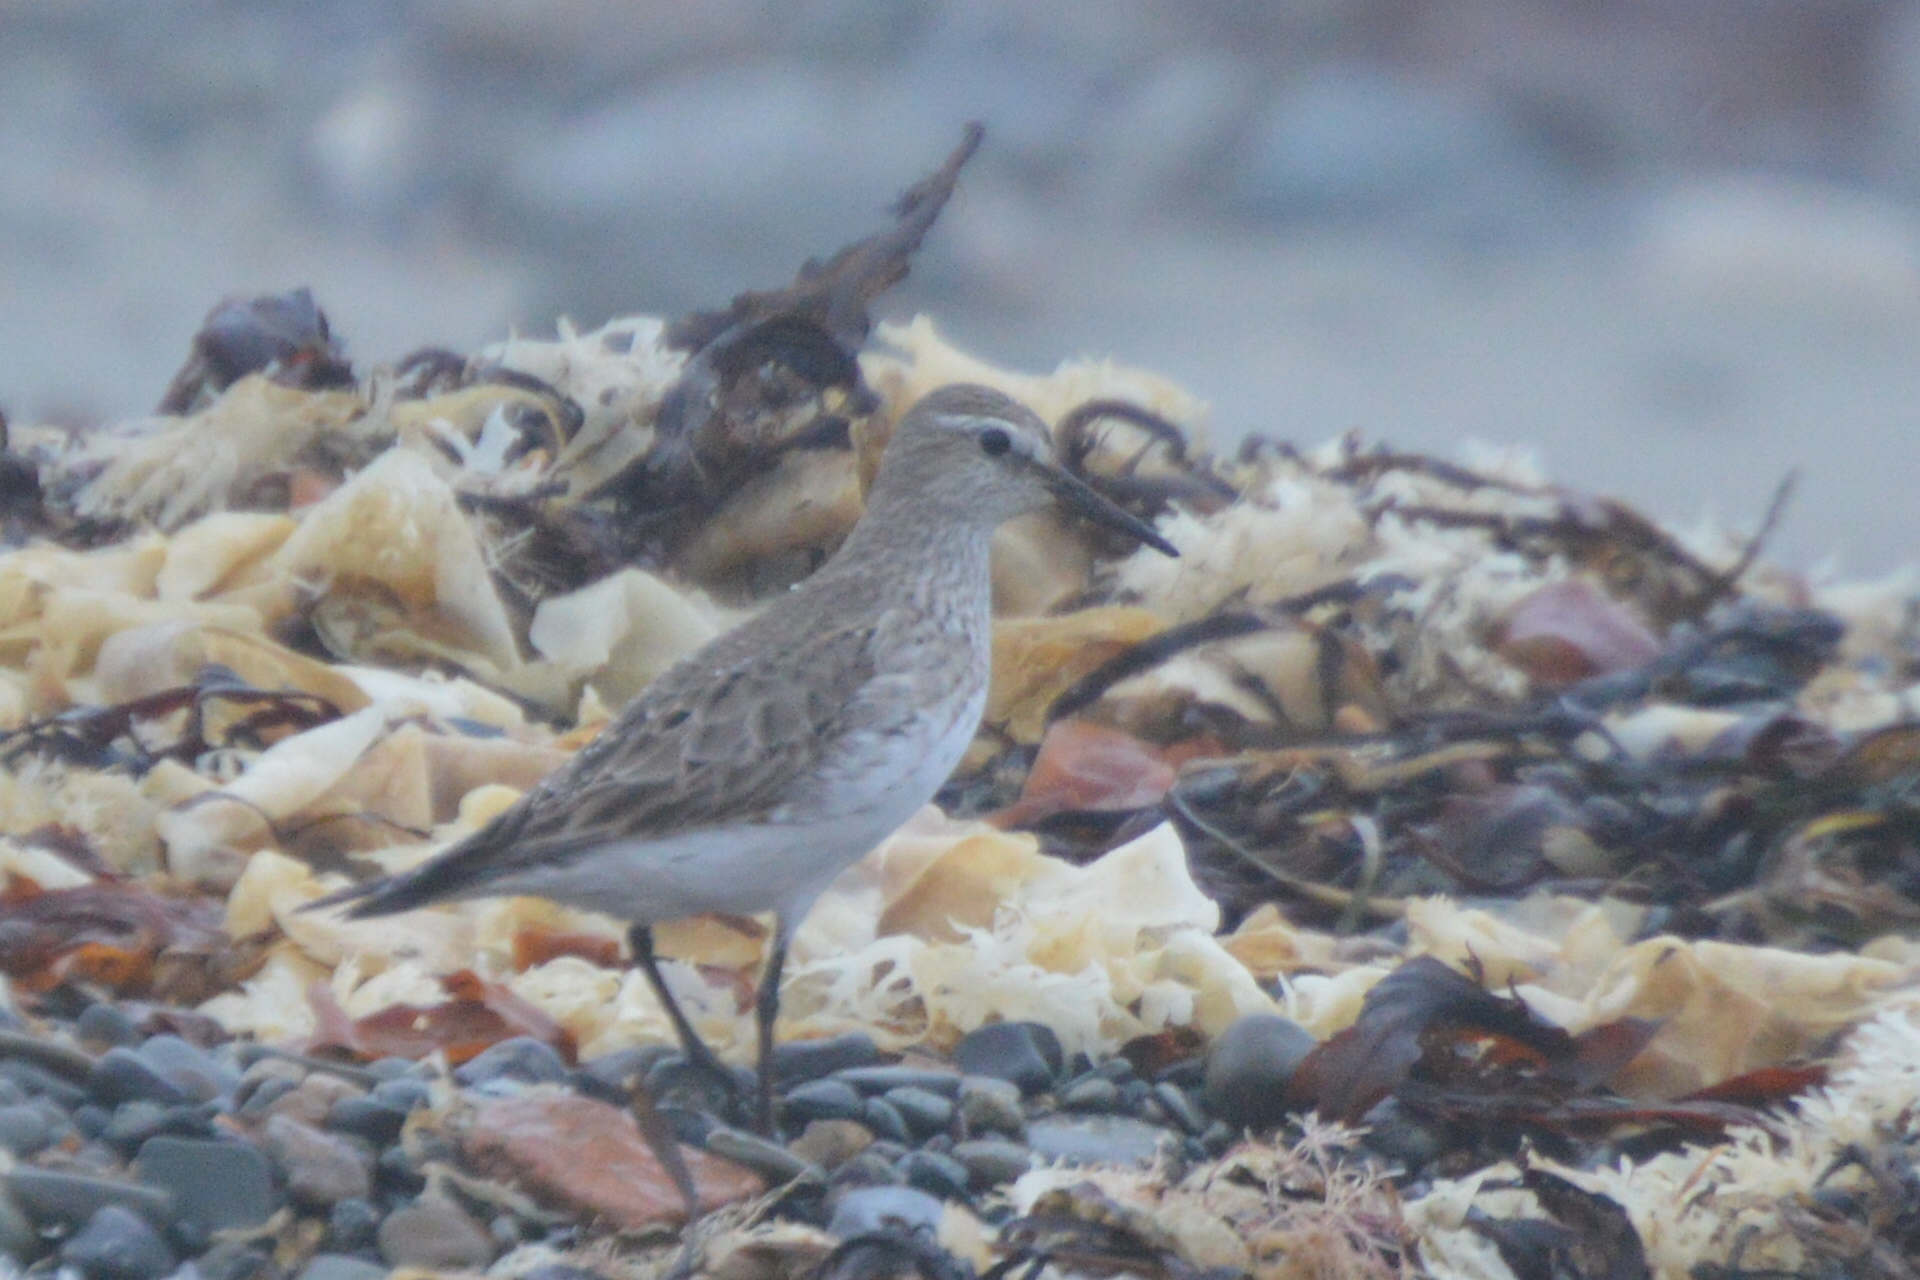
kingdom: Animalia
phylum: Chordata
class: Aves
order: Charadriiformes
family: Scolopacidae
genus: Calidris
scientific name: Calidris fuscicollis
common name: White-rumped sandpiper
